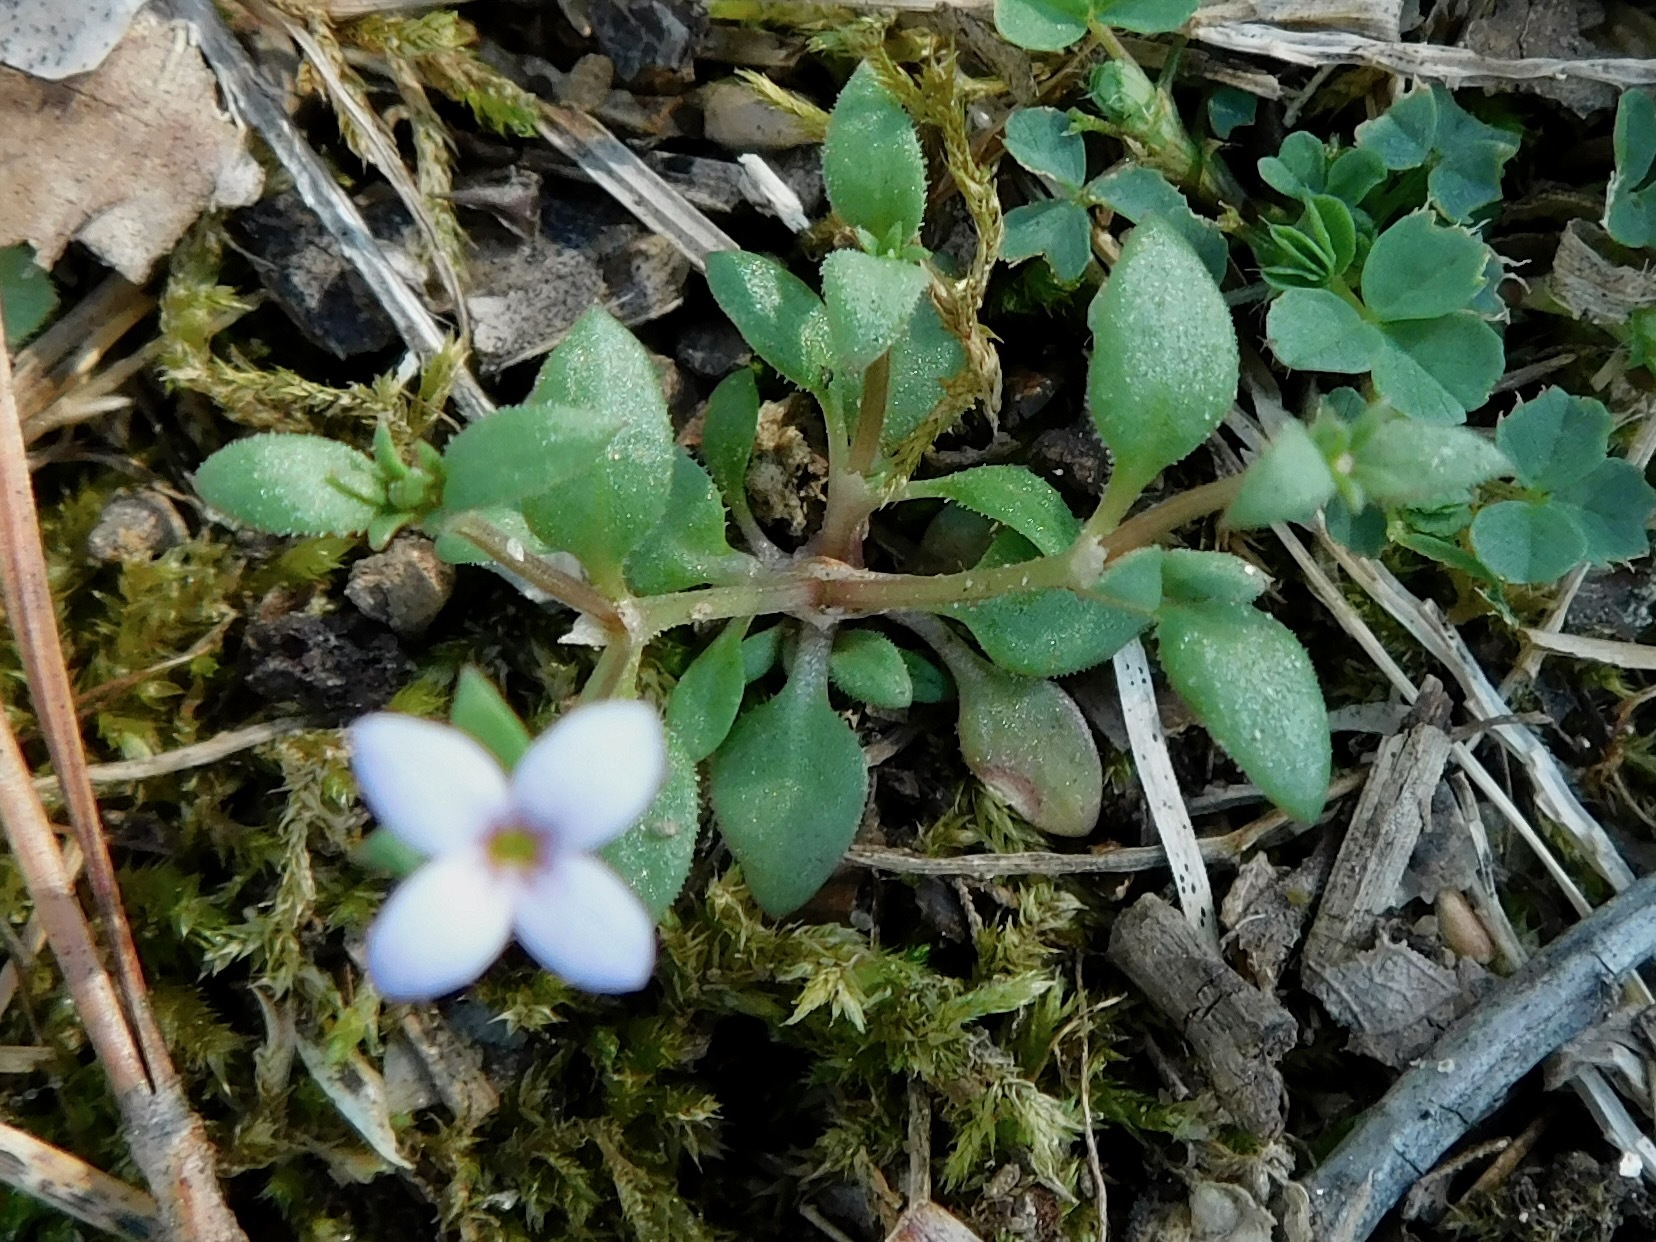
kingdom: Plantae
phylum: Tracheophyta
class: Magnoliopsida
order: Gentianales
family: Rubiaceae
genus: Houstonia
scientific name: Houstonia pusilla
